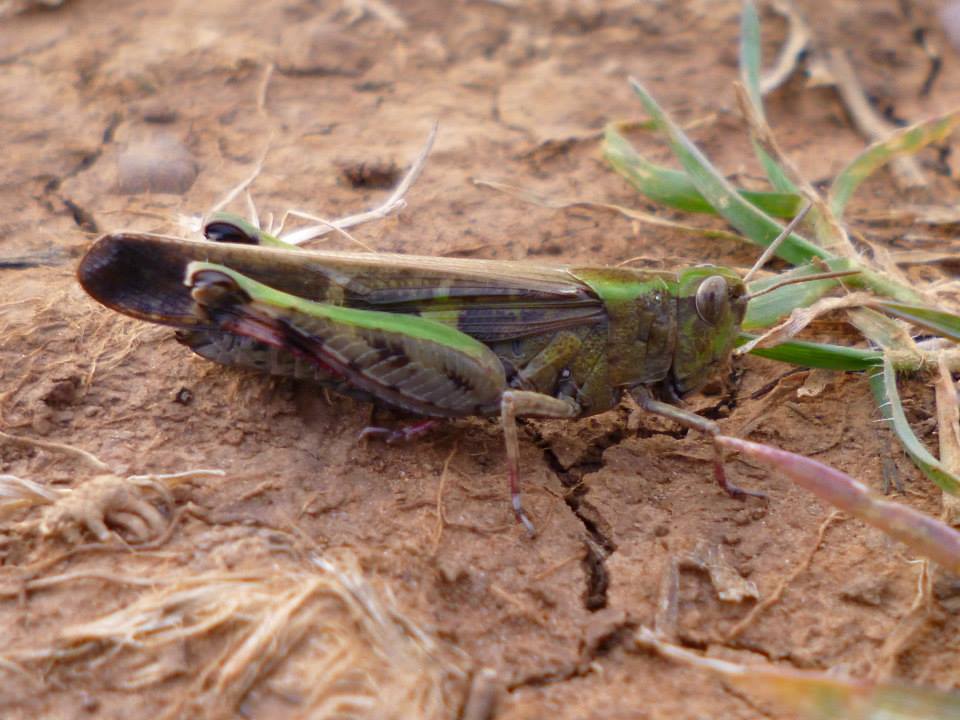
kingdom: Animalia
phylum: Arthropoda
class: Insecta
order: Orthoptera
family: Acrididae
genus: Aiolopus
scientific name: Aiolopus strepens
